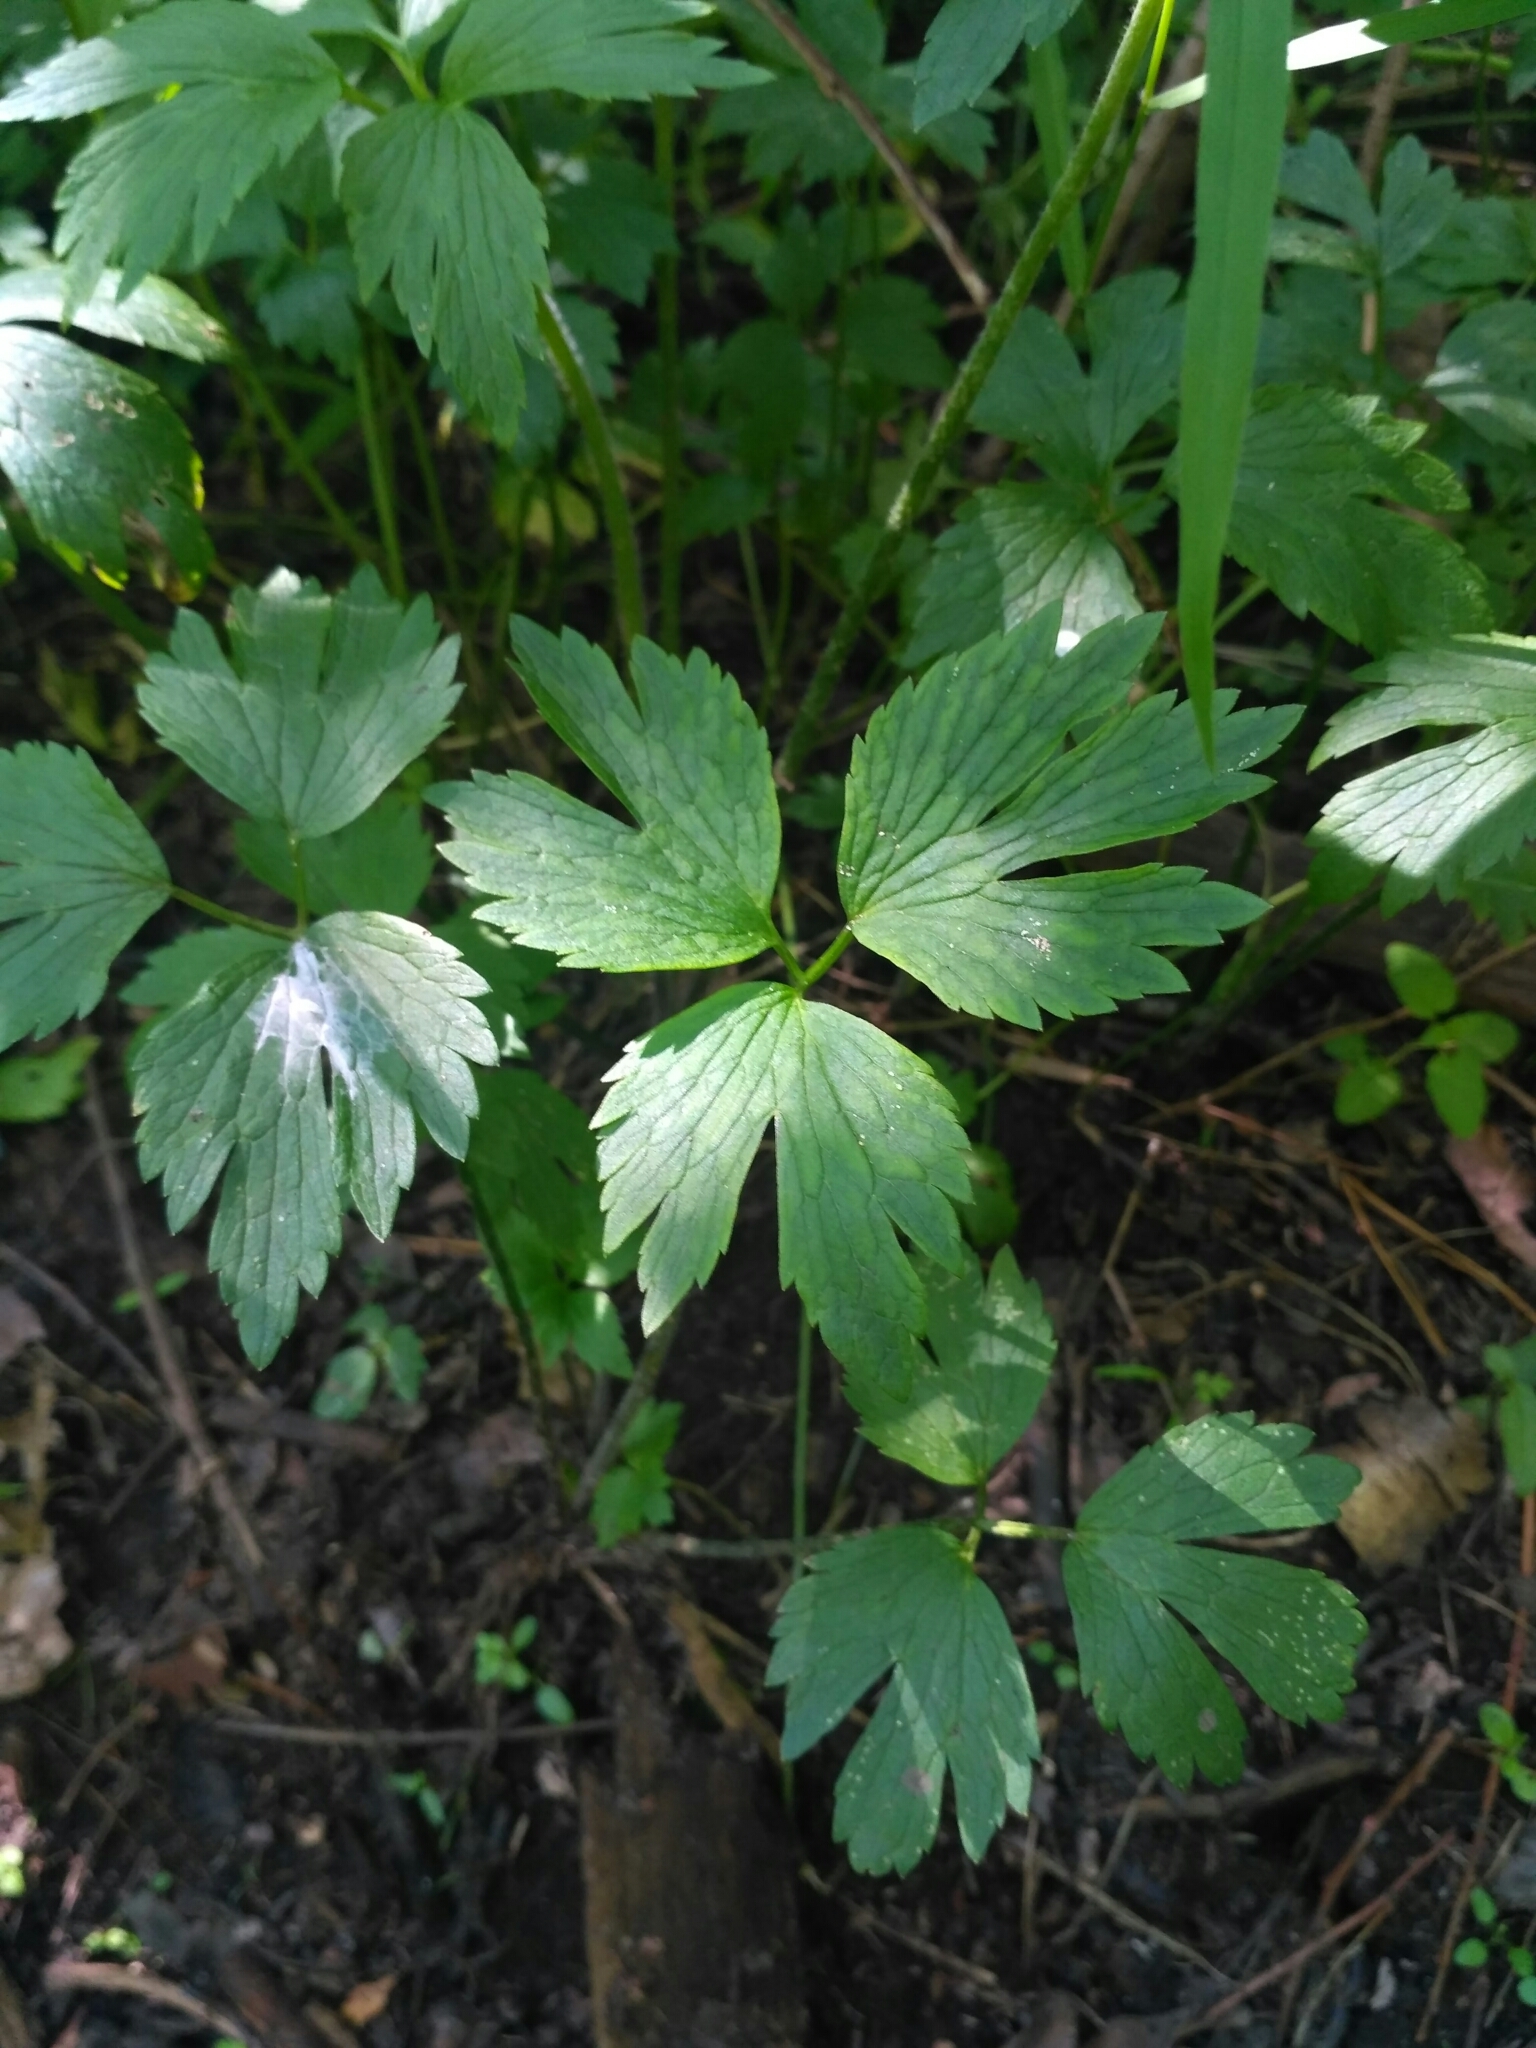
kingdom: Plantae
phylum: Tracheophyta
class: Magnoliopsida
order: Ranunculales
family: Ranunculaceae
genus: Ranunculus
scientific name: Ranunculus repens
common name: Creeping buttercup
